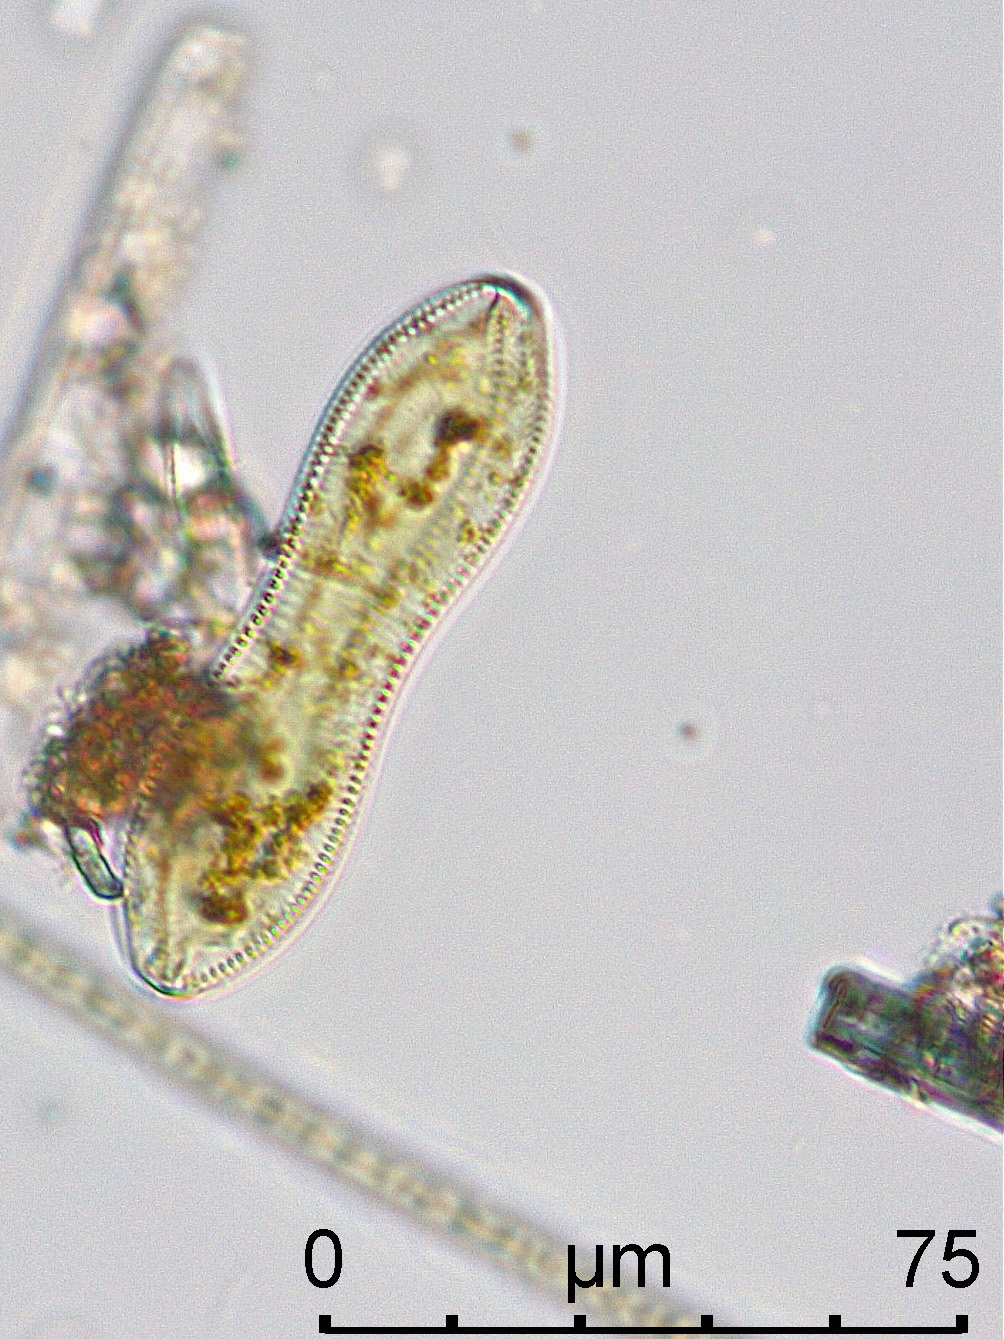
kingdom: Chromista
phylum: Ochrophyta
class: Bacillariophyceae
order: Surirellales
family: Surirellaceae
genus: Surirella
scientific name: Surirella librile
